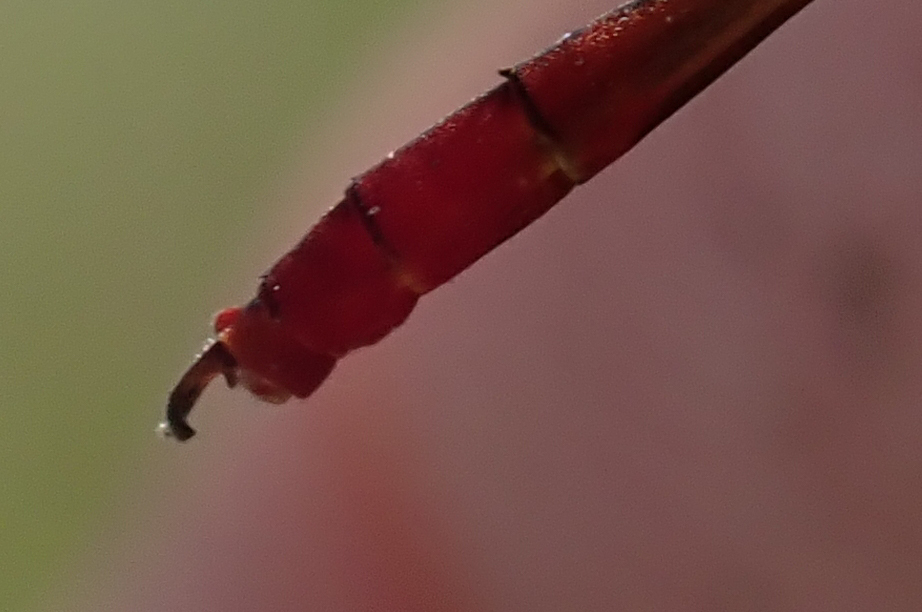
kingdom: Animalia
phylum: Arthropoda
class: Insecta
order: Odonata
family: Coenagrionidae
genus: Agriocnemis
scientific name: Agriocnemis victoria
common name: Lesser pincer-tailed wisp
